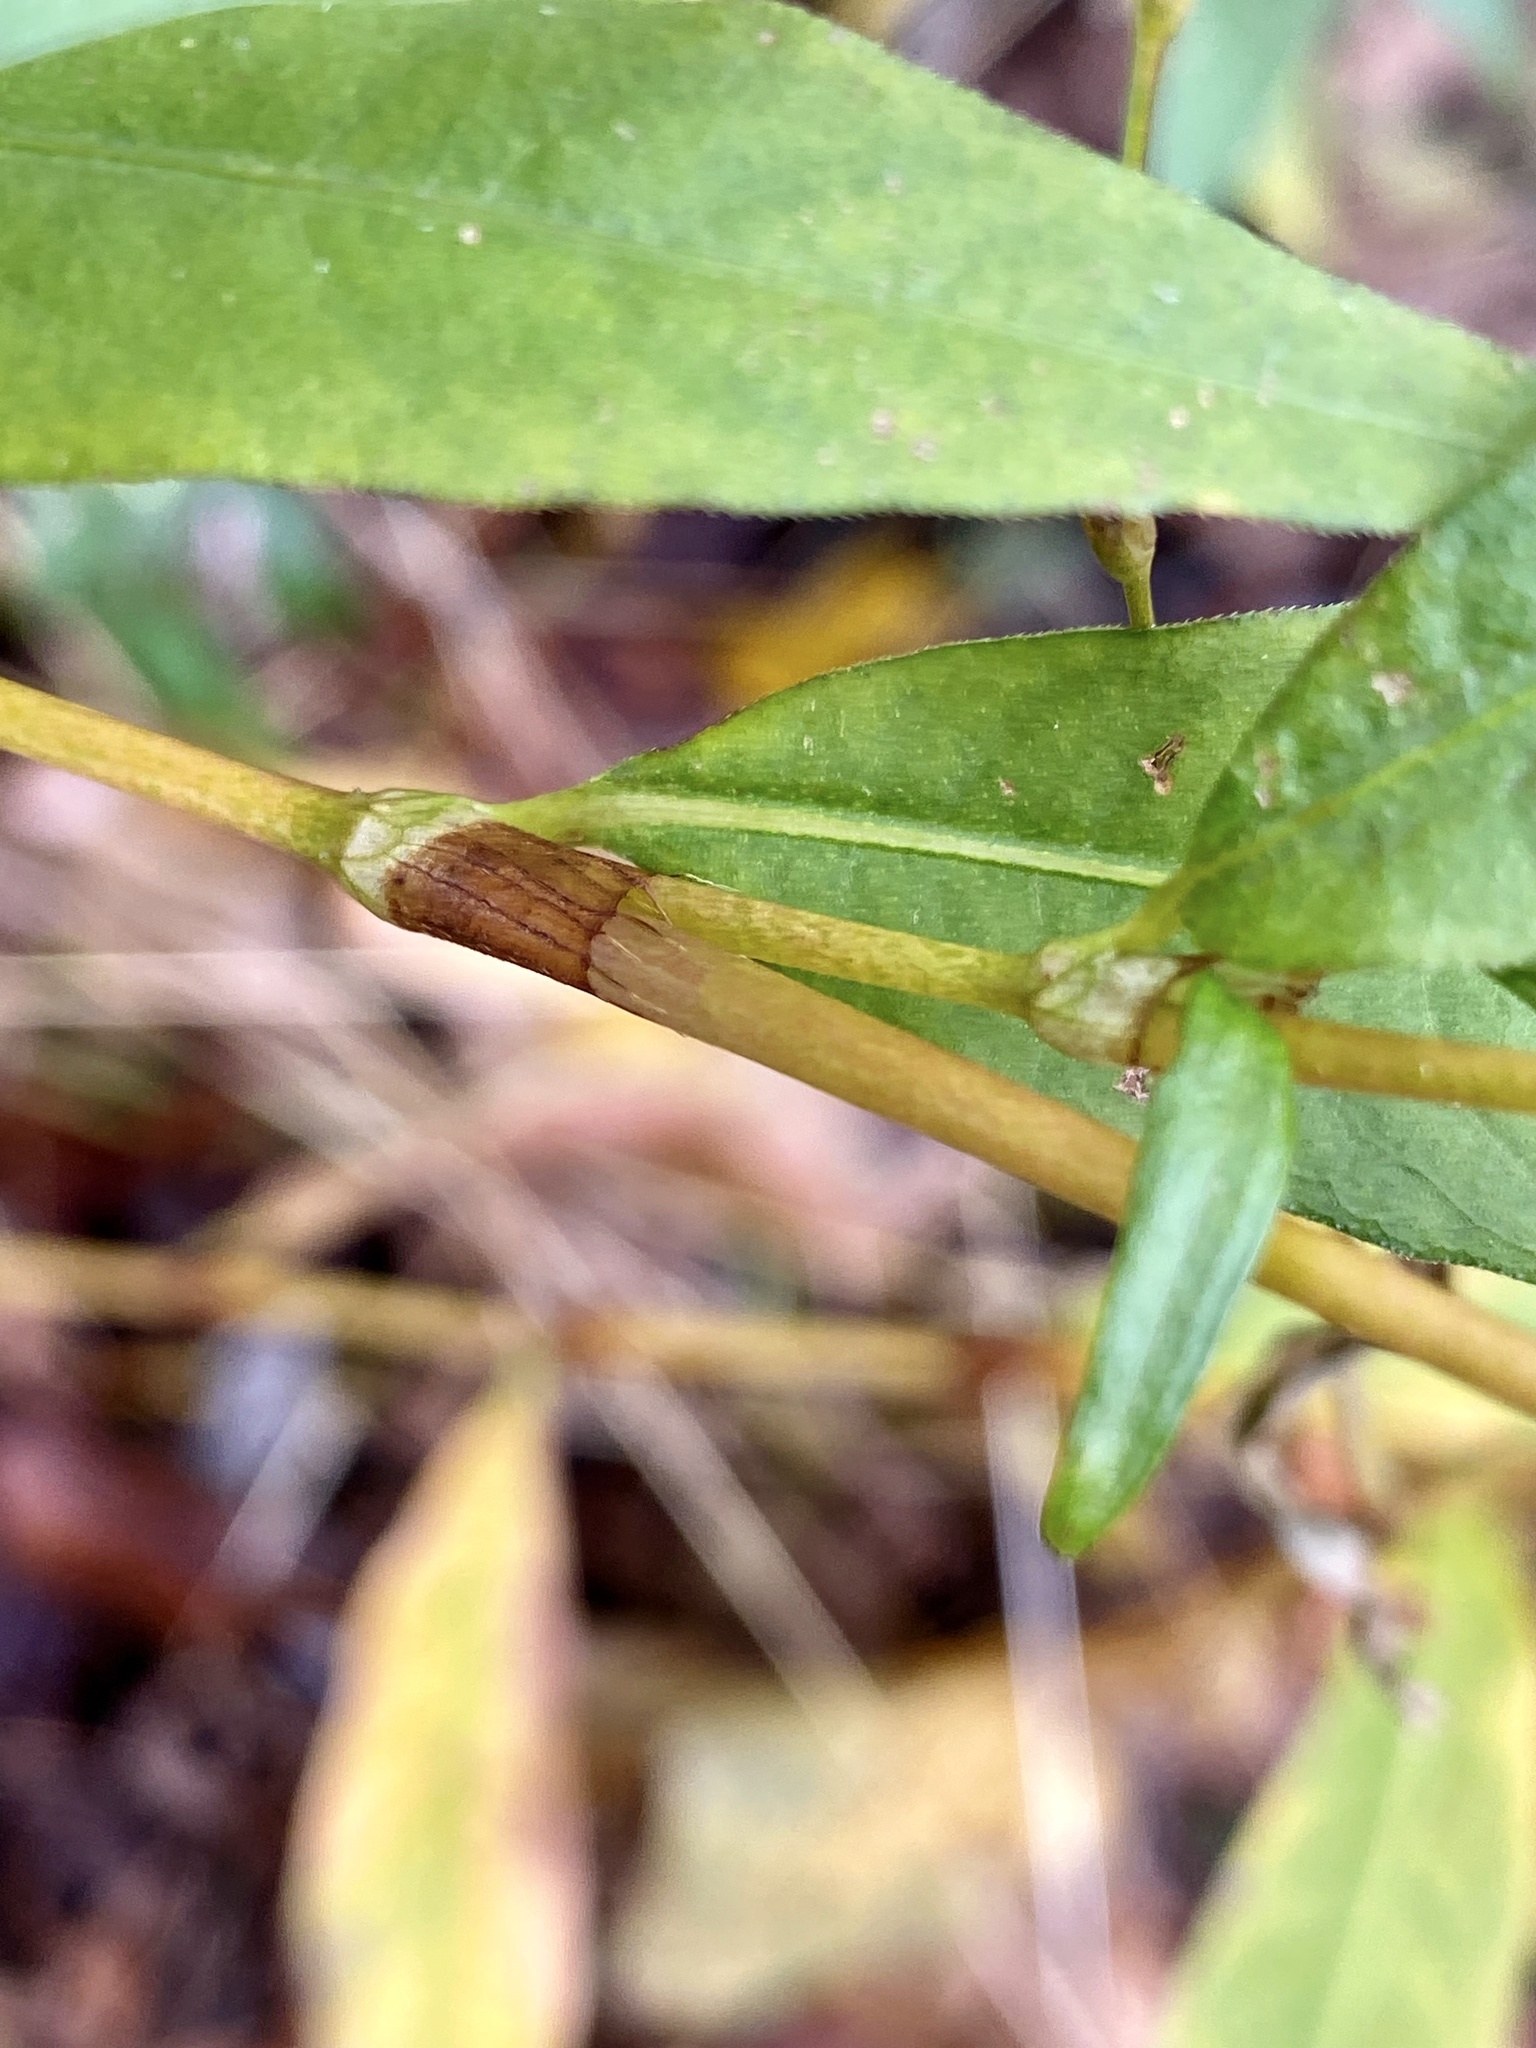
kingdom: Plantae
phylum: Tracheophyta
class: Magnoliopsida
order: Caryophyllales
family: Polygonaceae
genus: Persicaria
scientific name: Persicaria punctata
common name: Dotted smartweed
